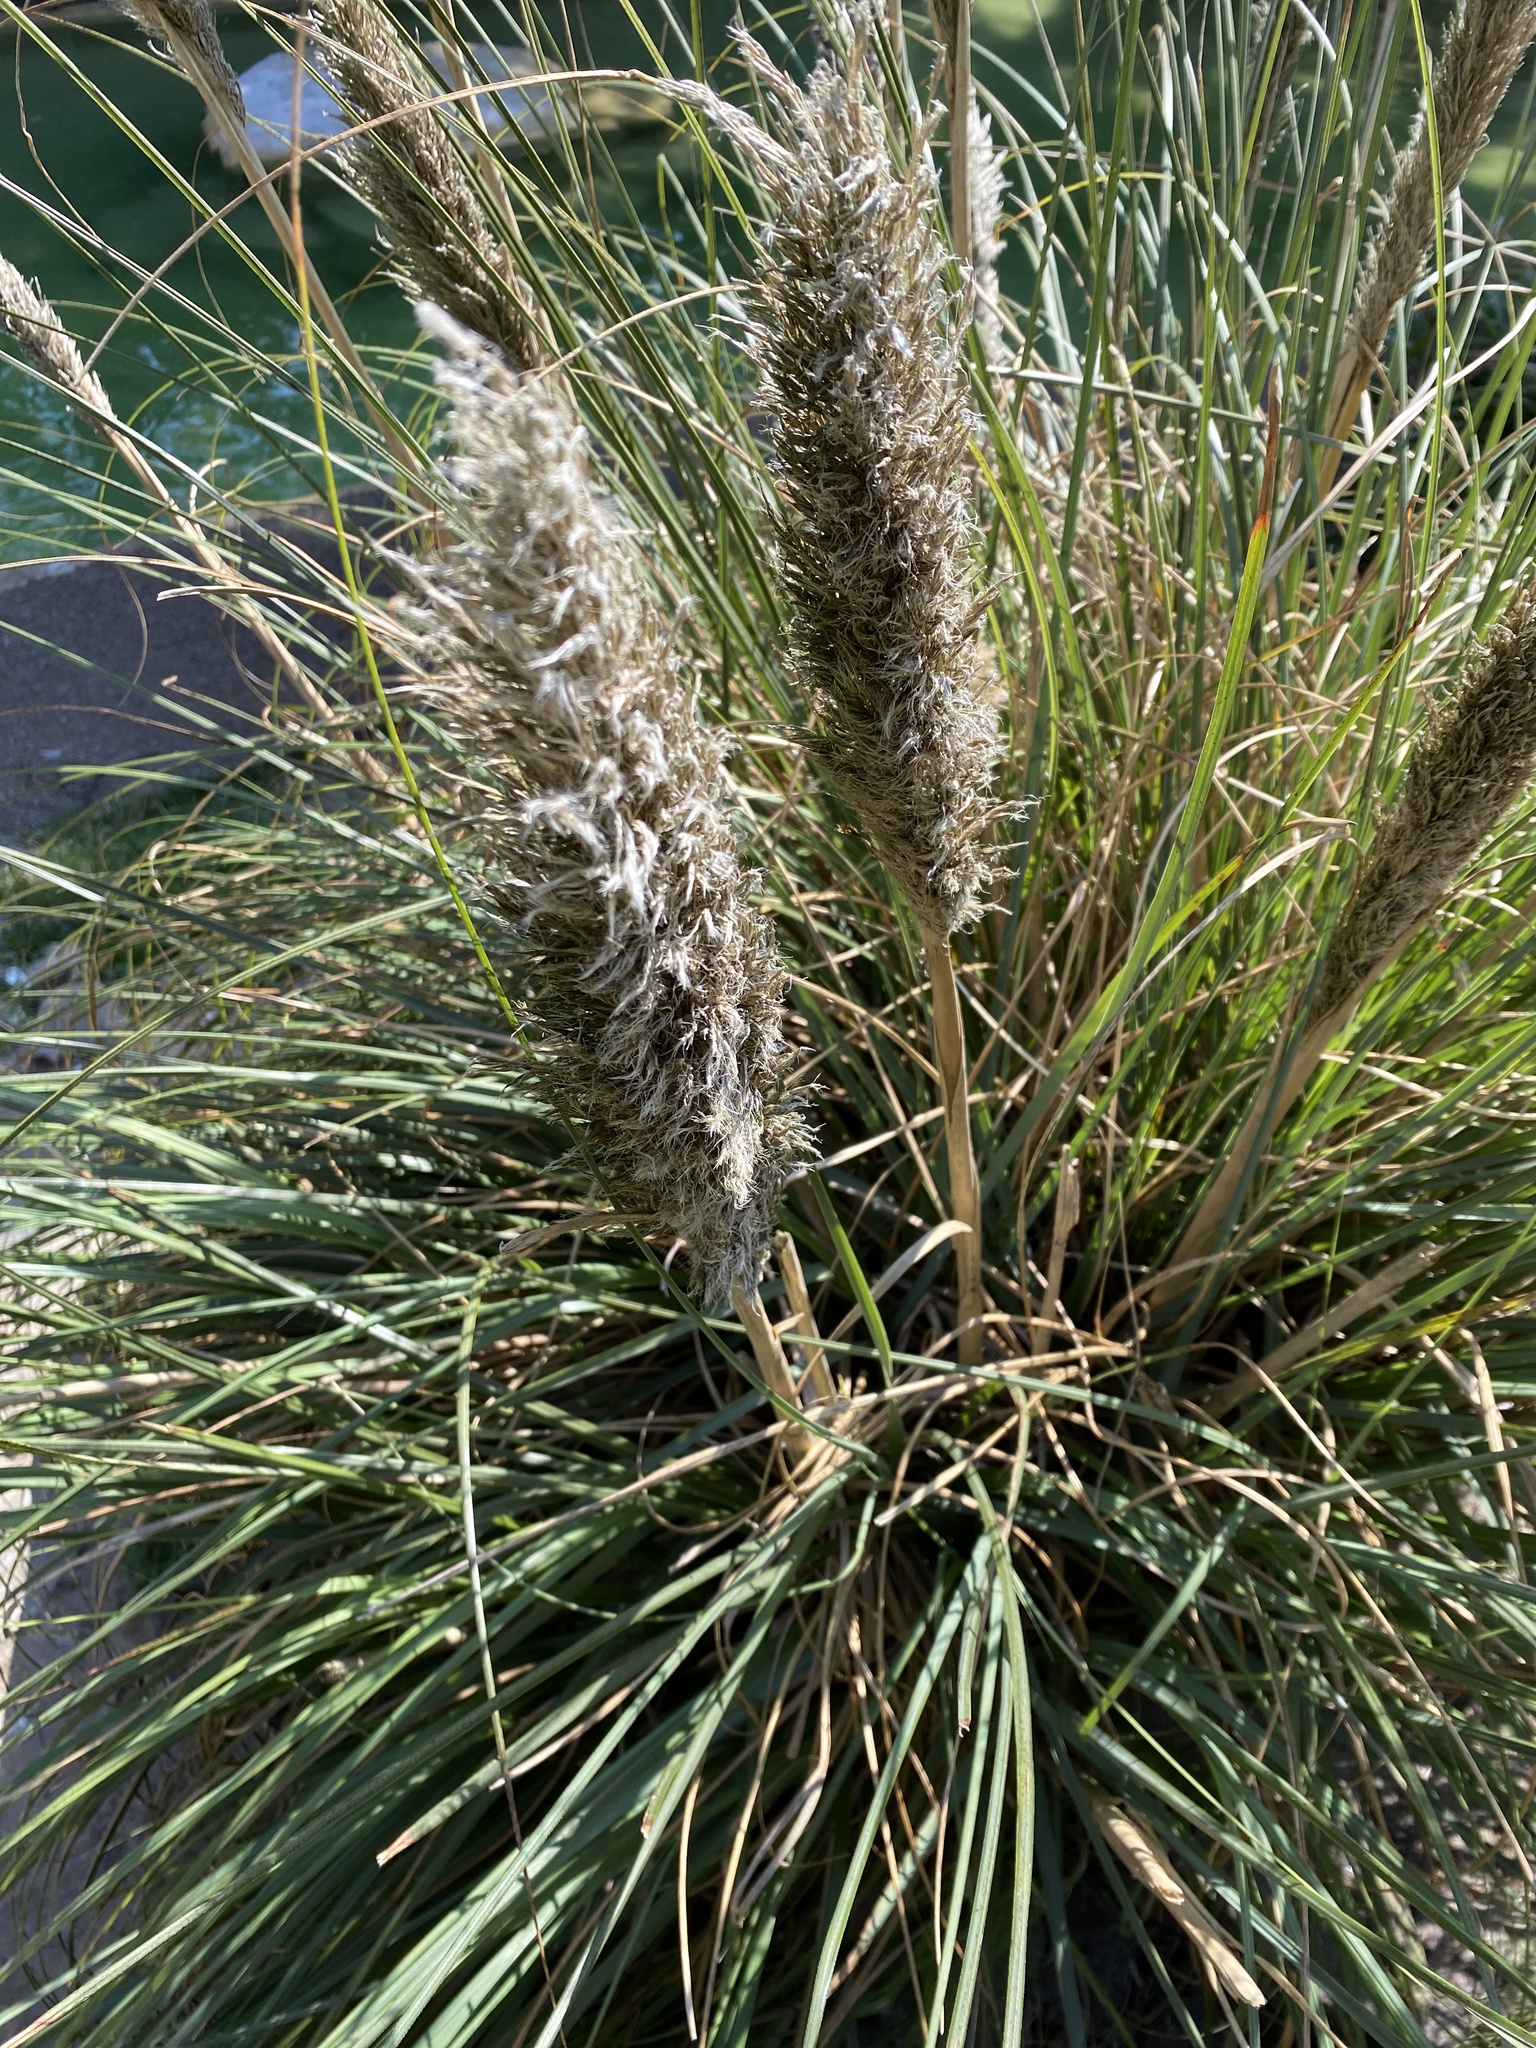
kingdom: Plantae
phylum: Tracheophyta
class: Liliopsida
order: Poales
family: Poaceae
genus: Cortaderia
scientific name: Cortaderia selloana
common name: Uruguayan pampas grass
